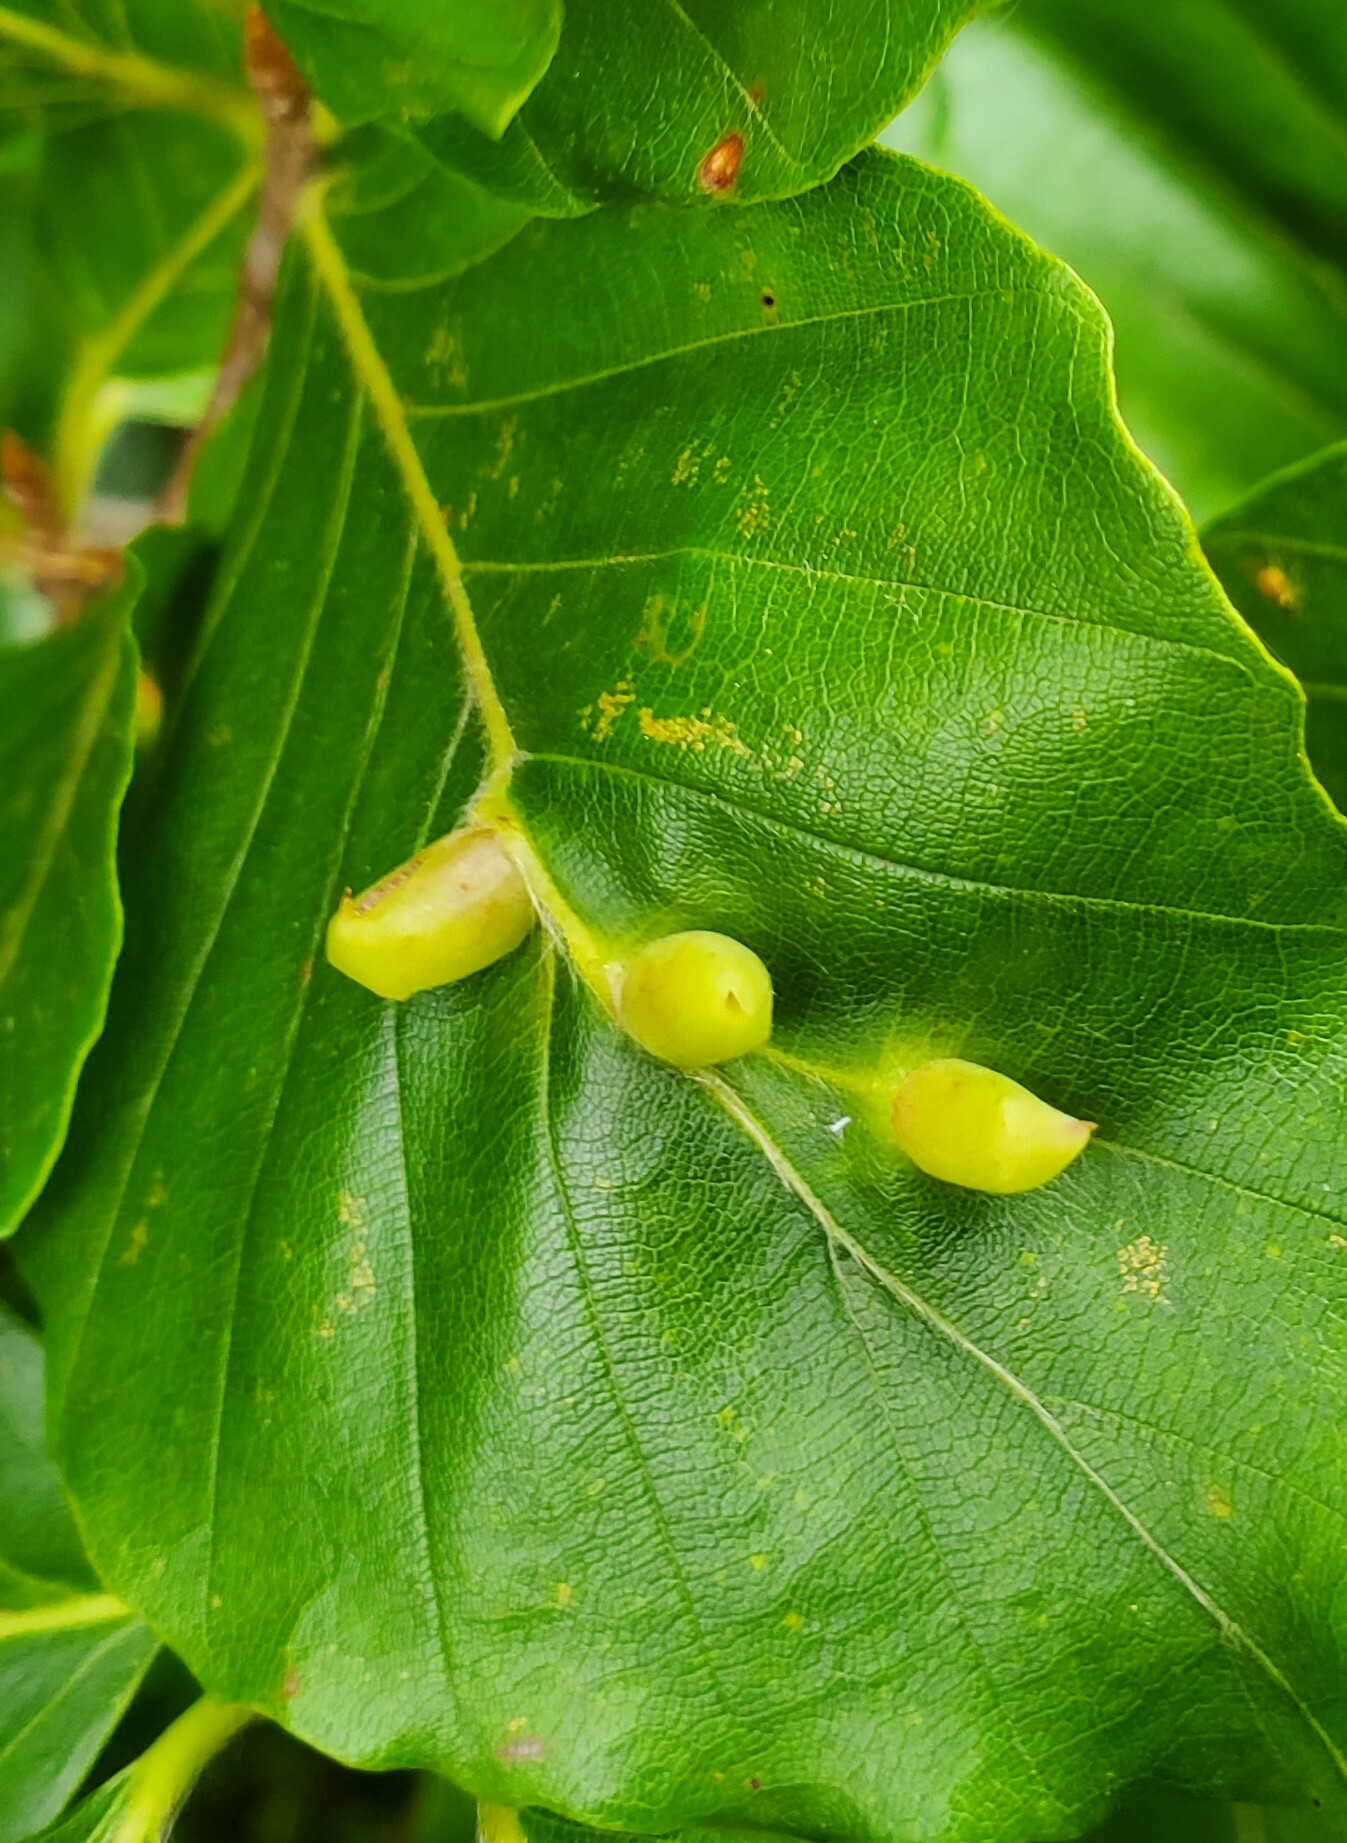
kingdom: Animalia
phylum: Arthropoda
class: Insecta
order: Diptera
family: Cecidomyiidae
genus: Mikiola
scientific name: Mikiola fagi
